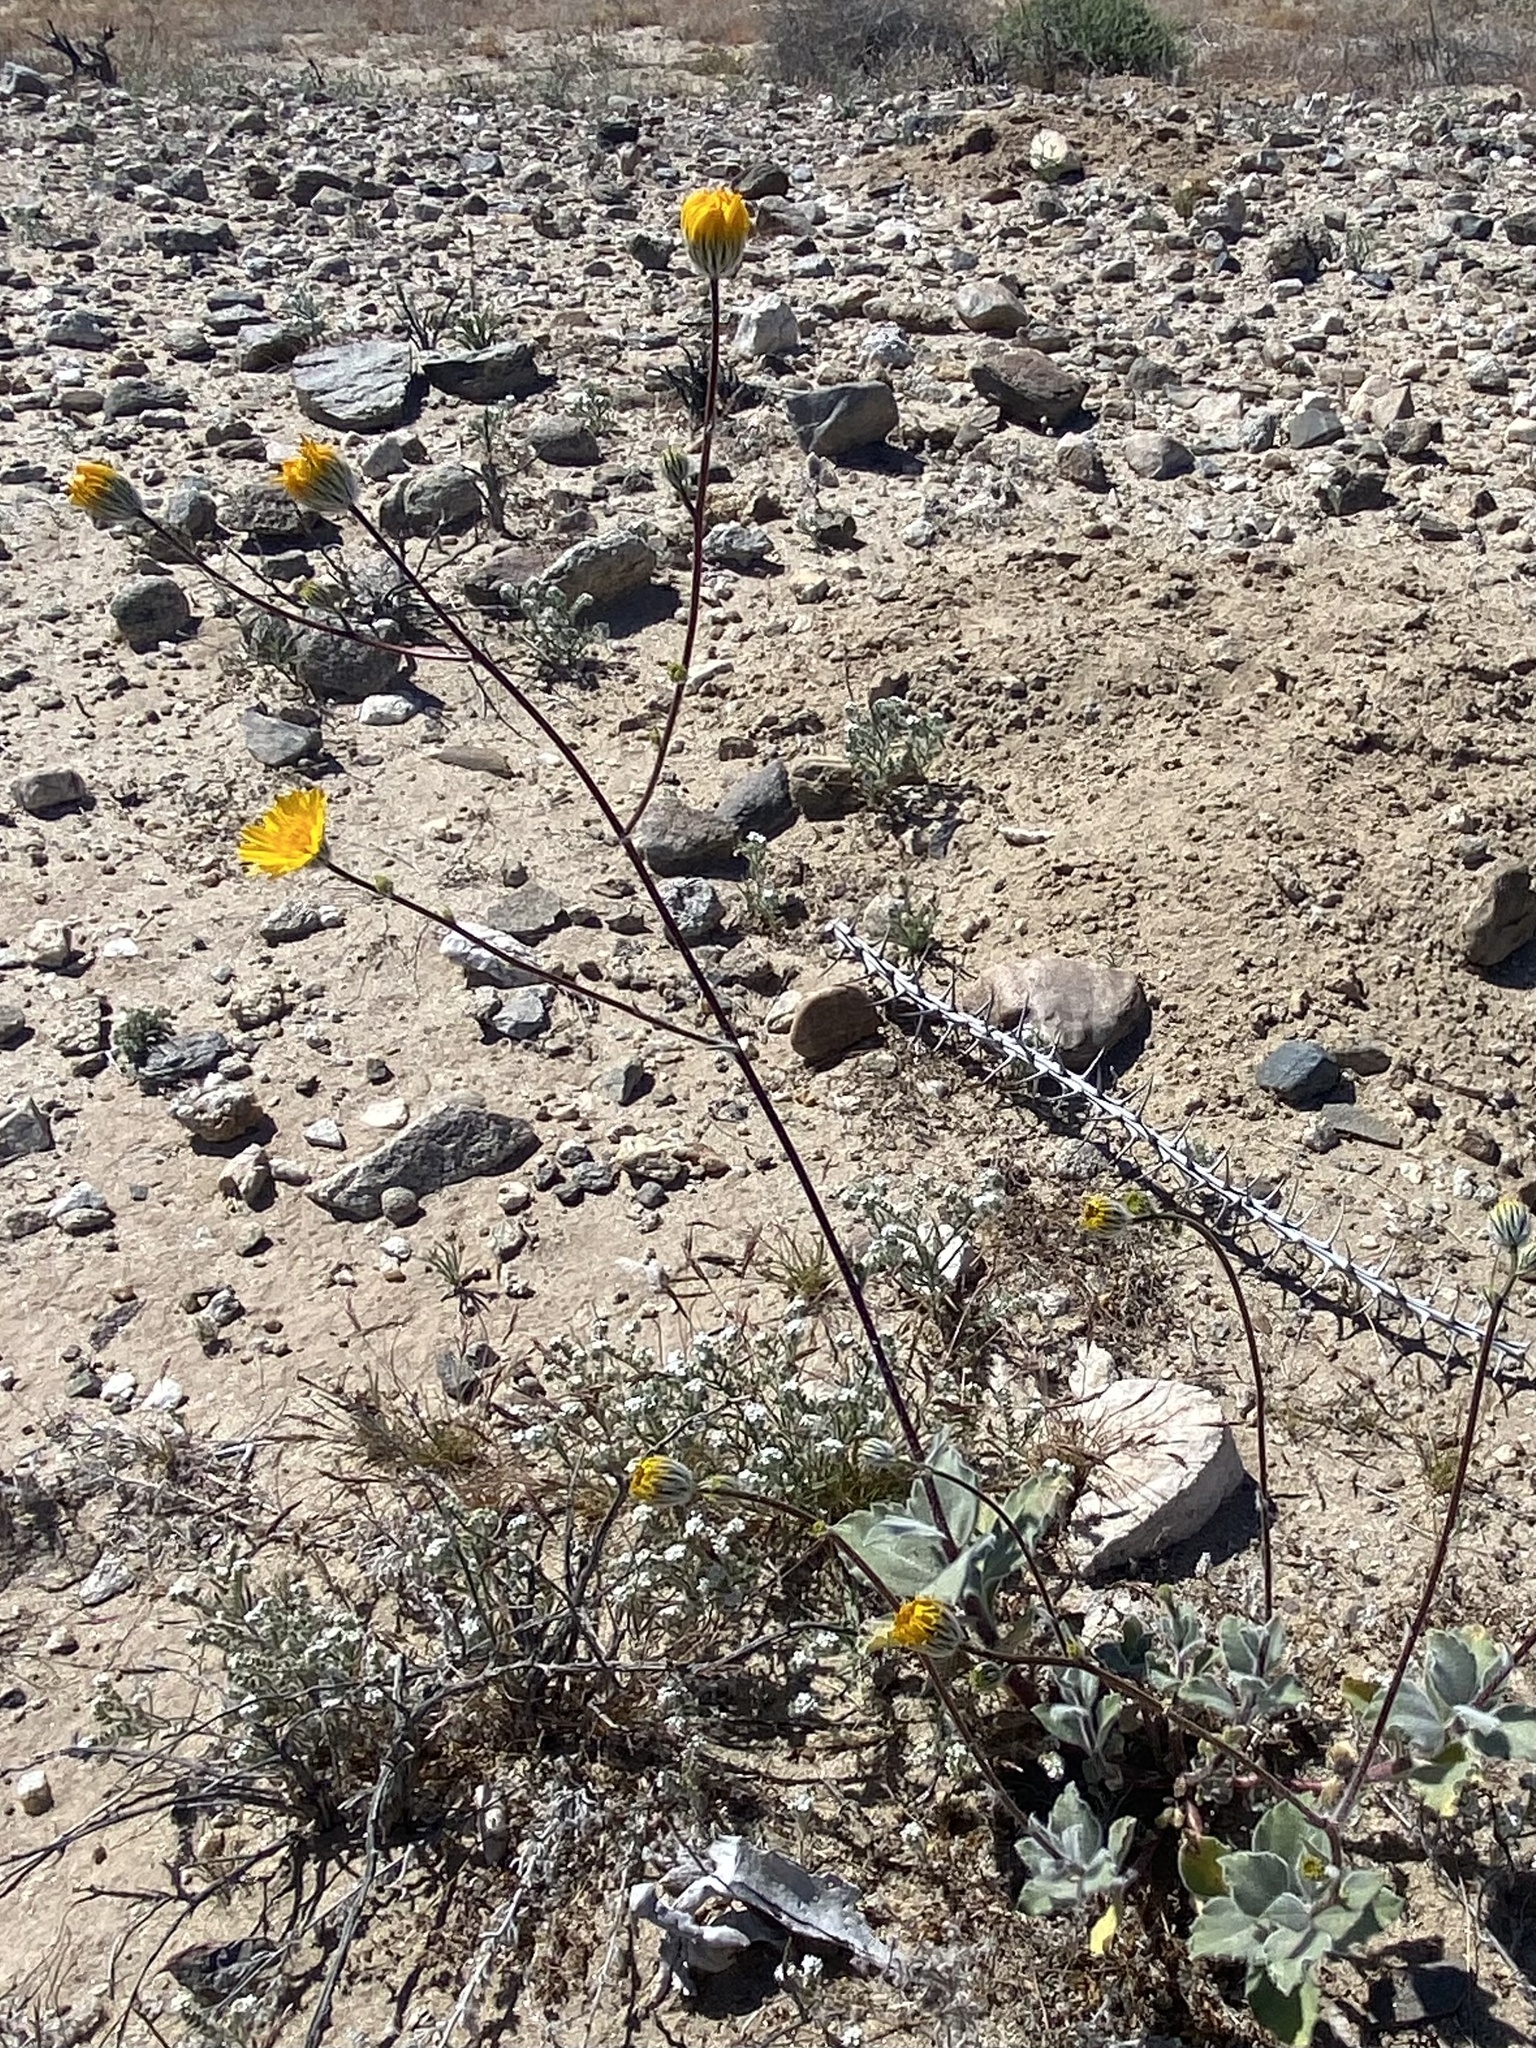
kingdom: Plantae
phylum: Tracheophyta
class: Magnoliopsida
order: Asterales
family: Asteraceae
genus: Geraea
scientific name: Geraea canescens
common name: Desert-gold
